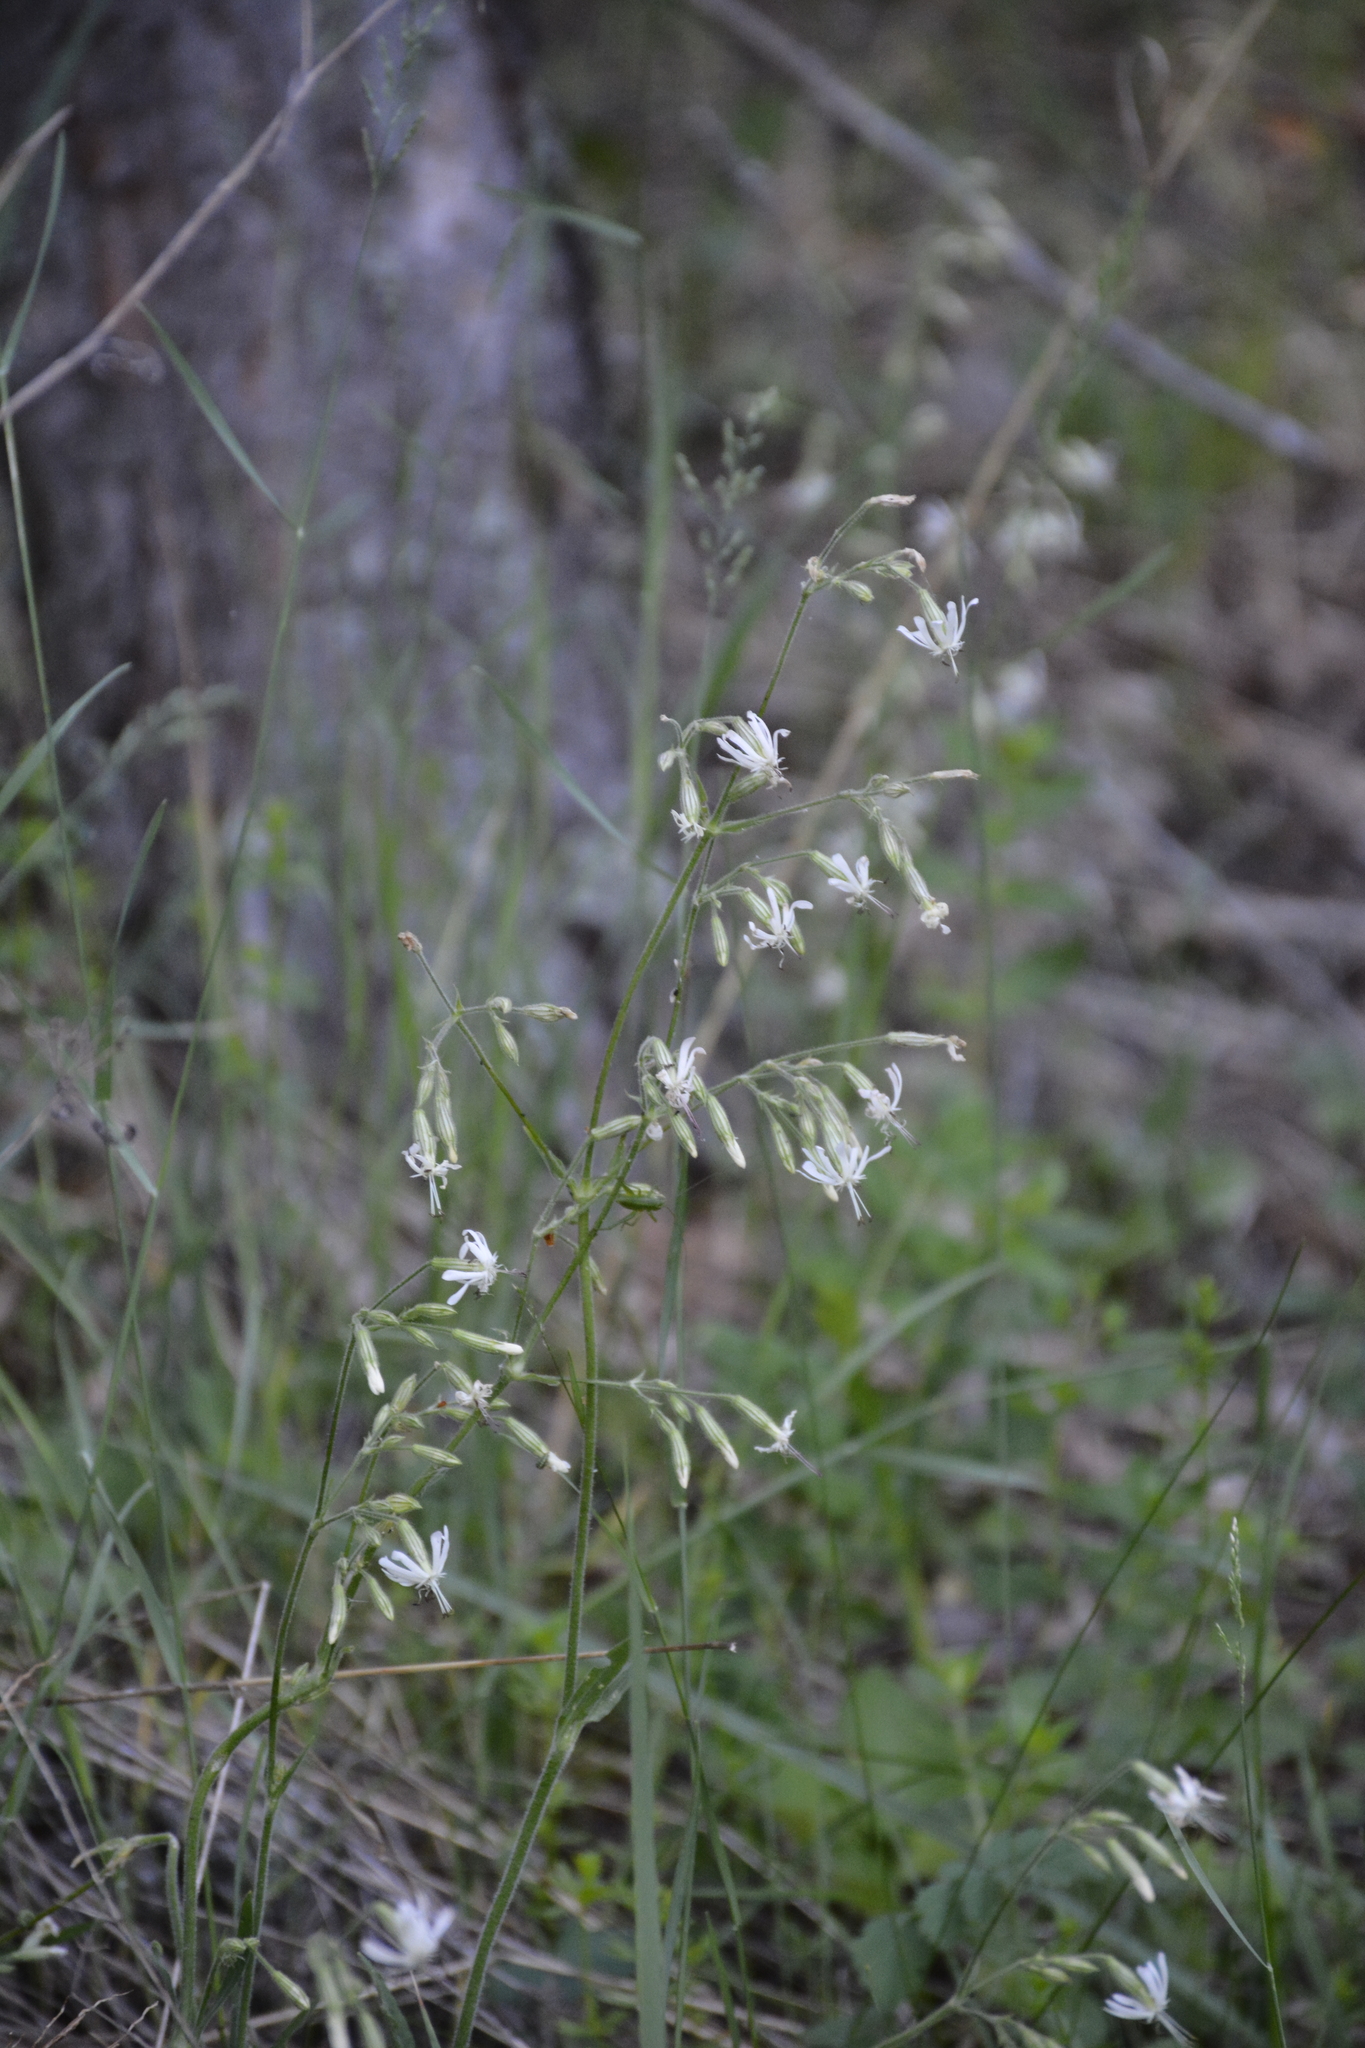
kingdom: Plantae
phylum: Tracheophyta
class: Magnoliopsida
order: Caryophyllales
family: Caryophyllaceae
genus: Silene
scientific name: Silene nutans
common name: Nottingham catchfly
